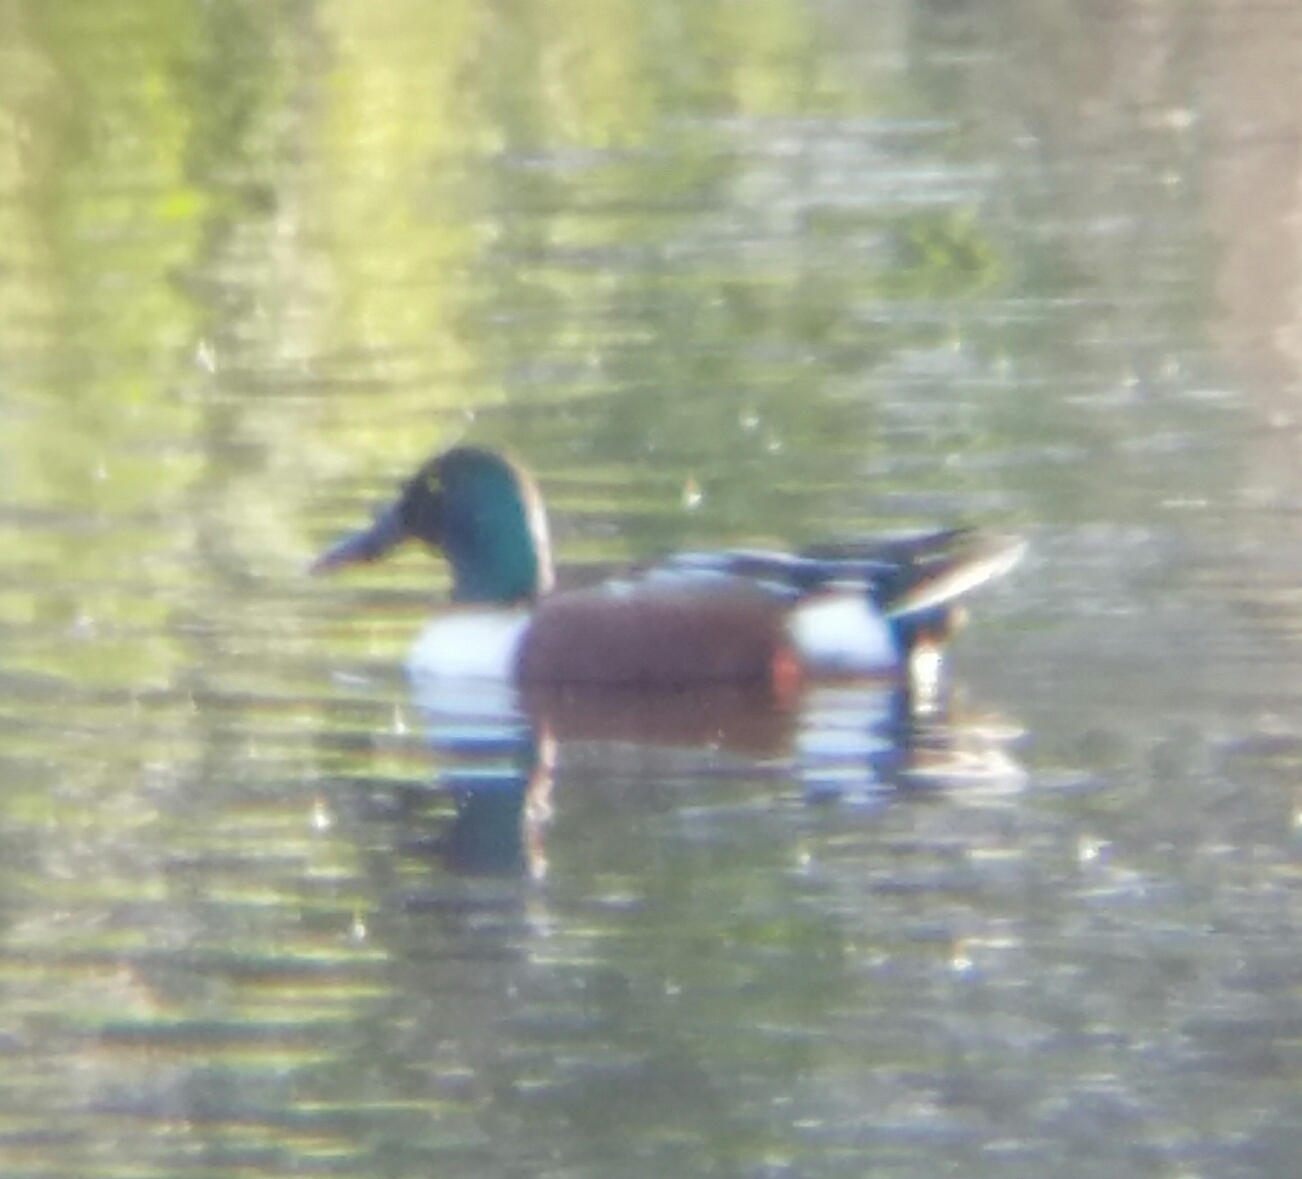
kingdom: Animalia
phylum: Chordata
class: Aves
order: Anseriformes
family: Anatidae
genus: Spatula
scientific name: Spatula clypeata
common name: Northern shoveler
